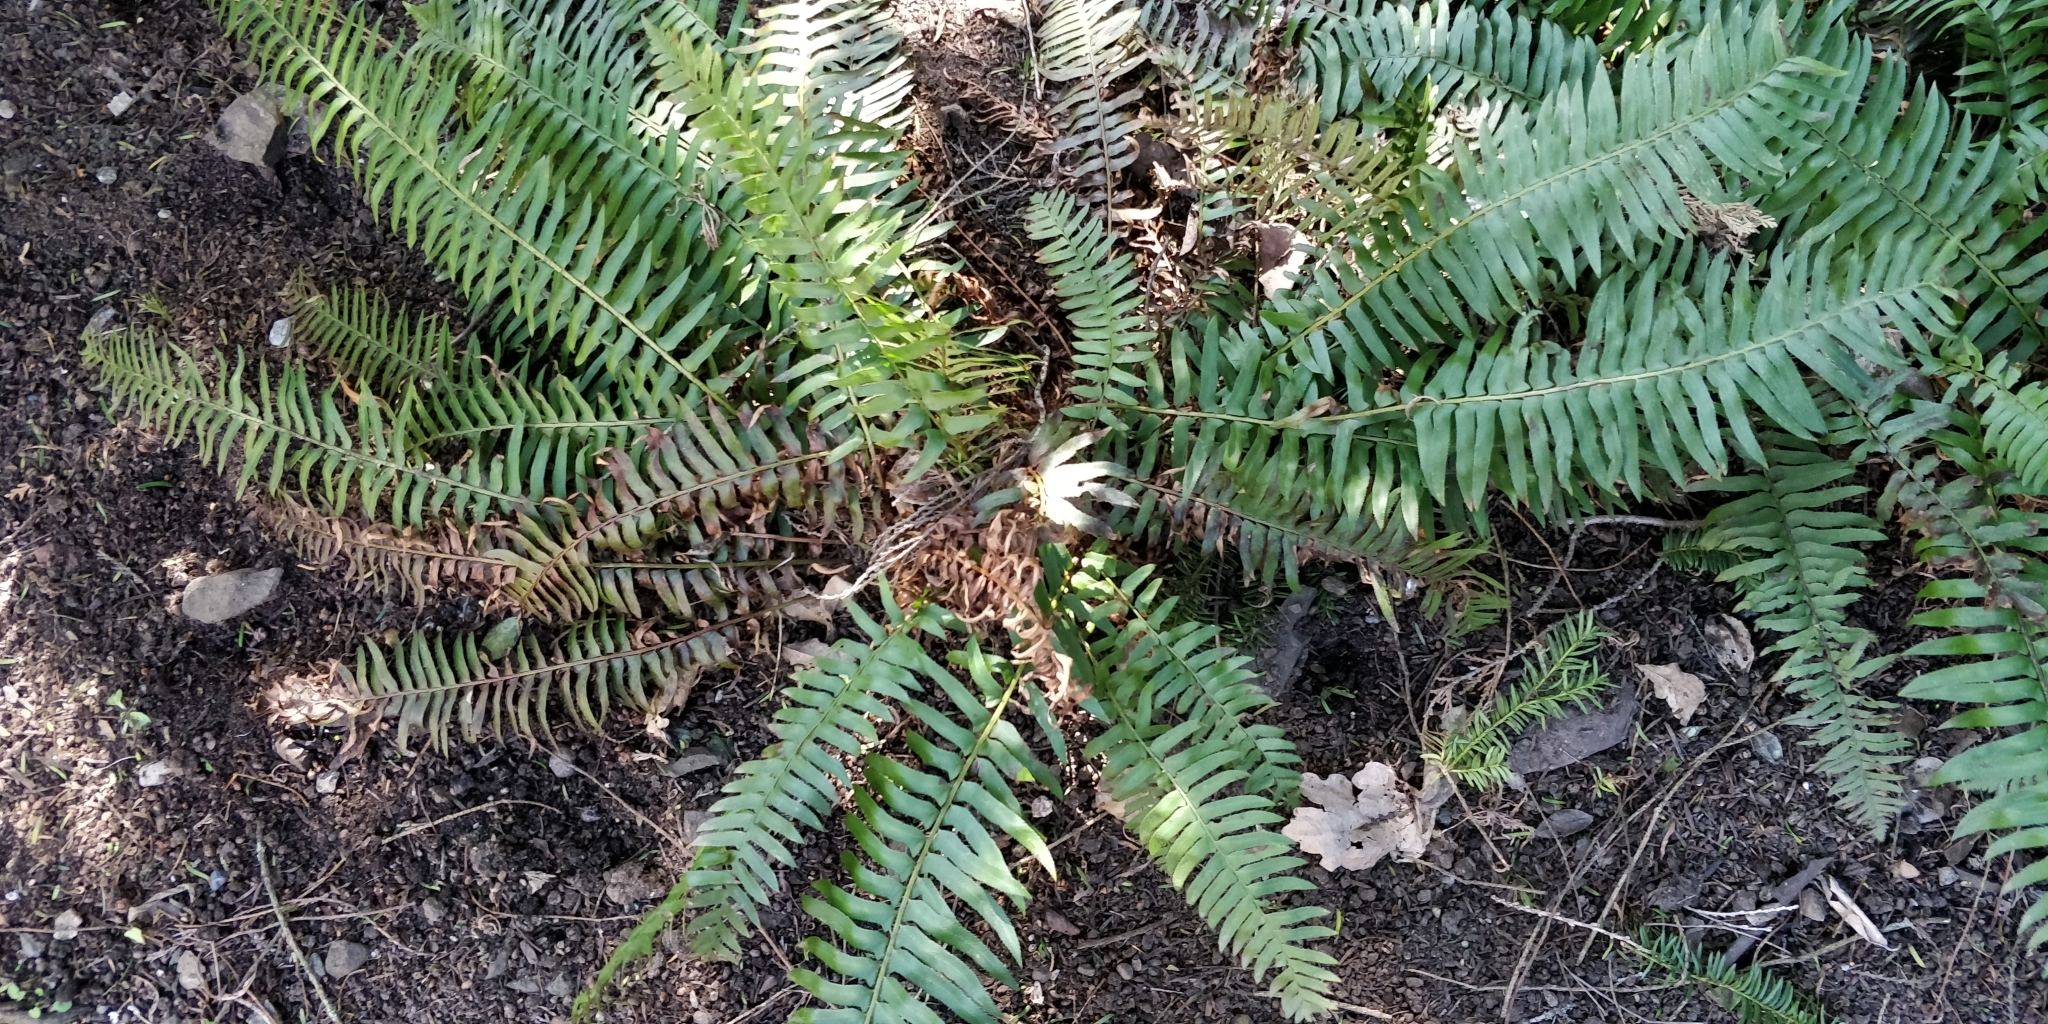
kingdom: Plantae
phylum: Tracheophyta
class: Polypodiopsida
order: Polypodiales
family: Dryopteridaceae
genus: Polystichum
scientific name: Polystichum munitum
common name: Western sword-fern
